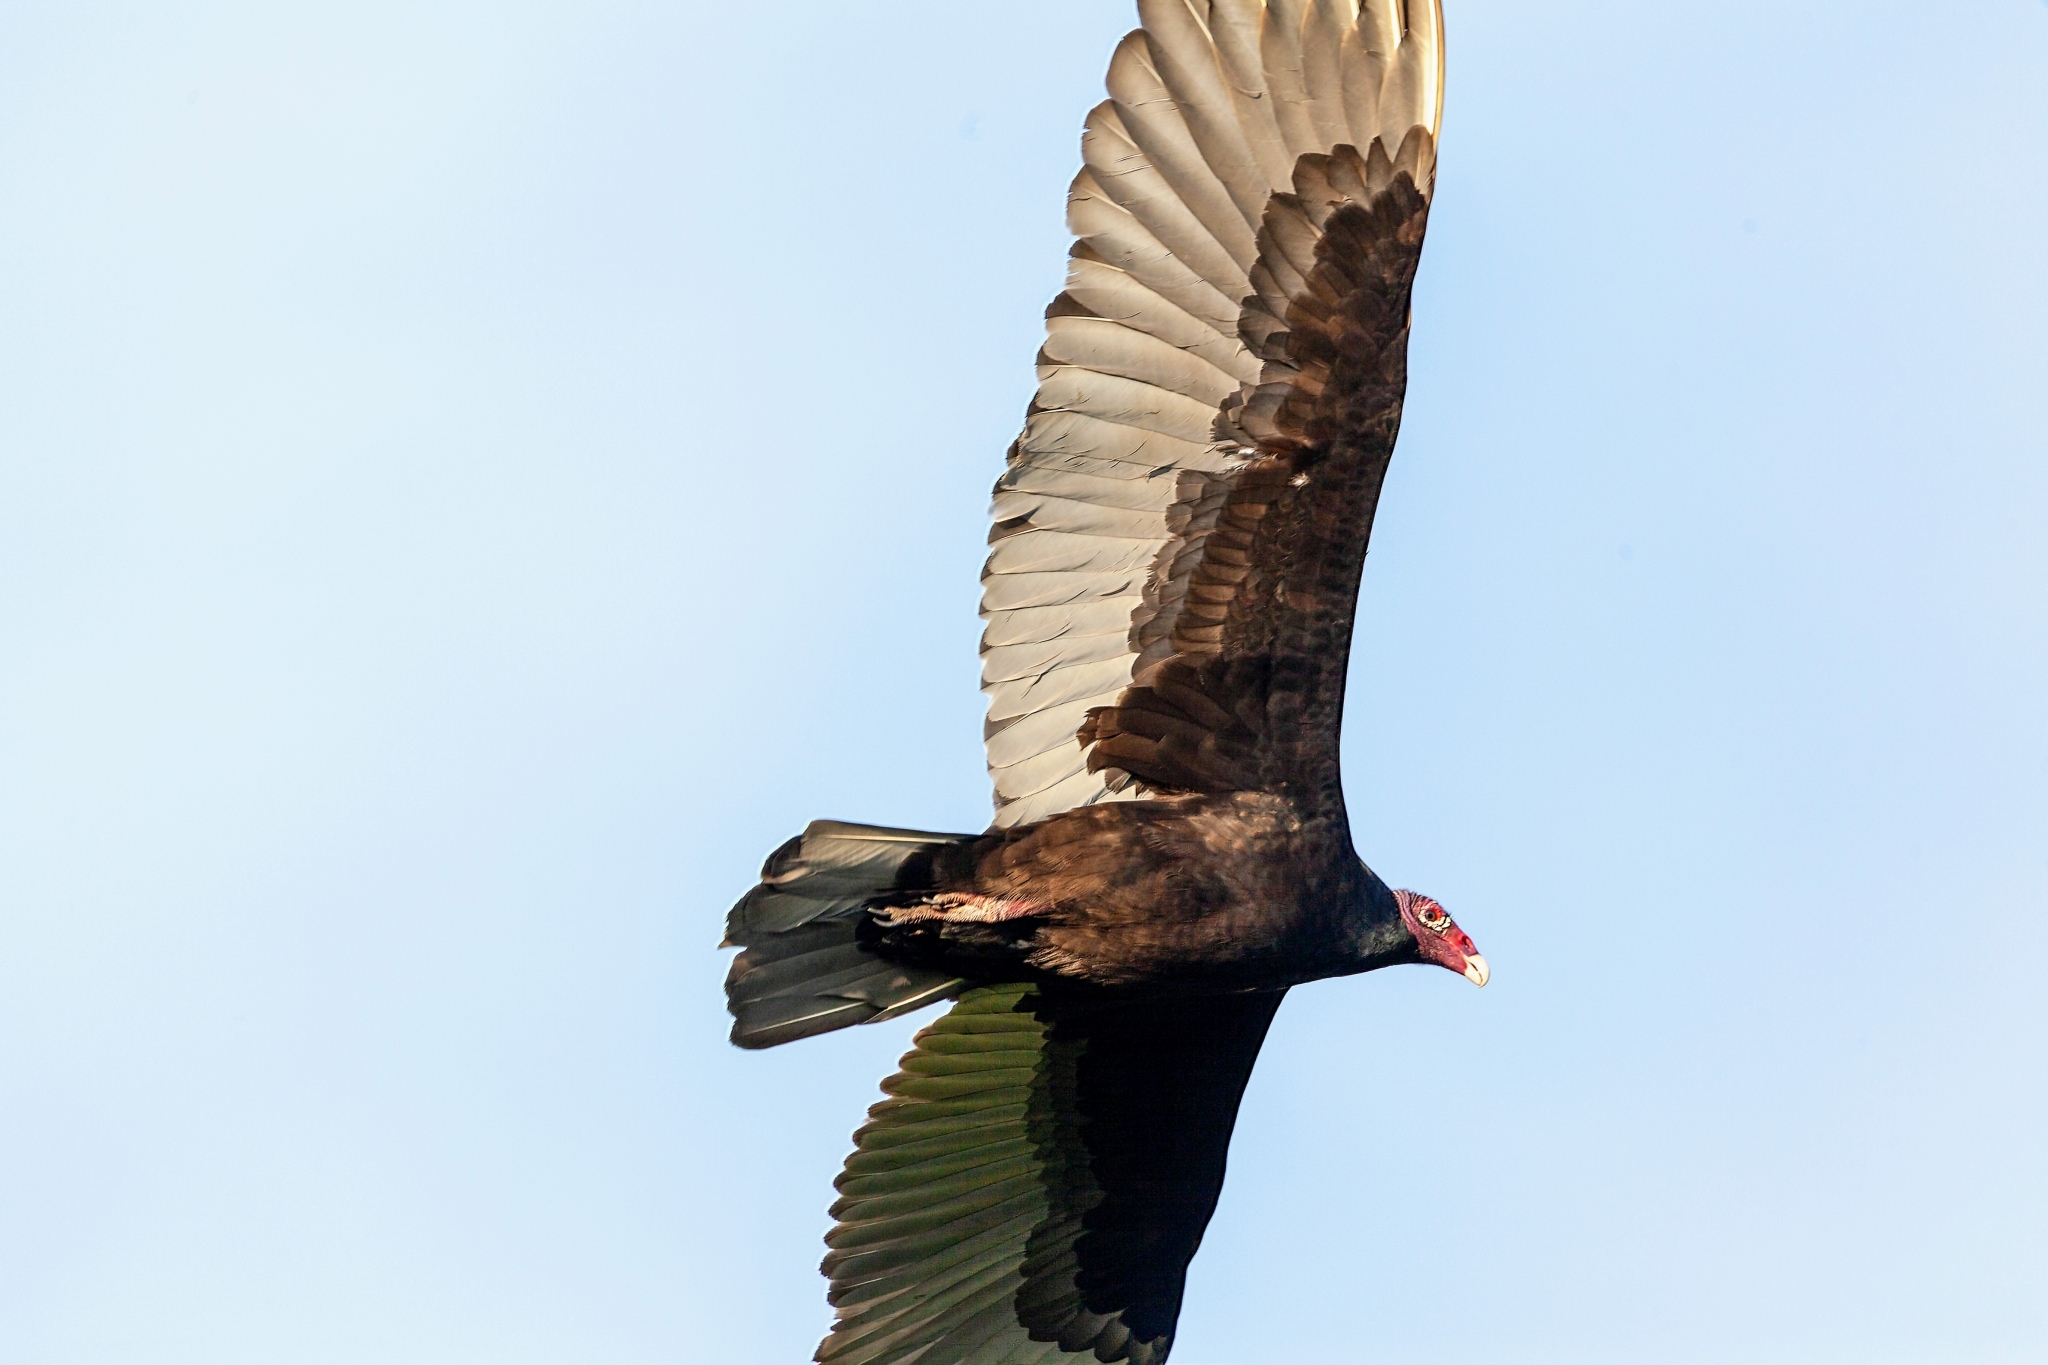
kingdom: Animalia
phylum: Chordata
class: Aves
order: Accipitriformes
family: Cathartidae
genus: Cathartes
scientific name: Cathartes aura
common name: Turkey vulture
